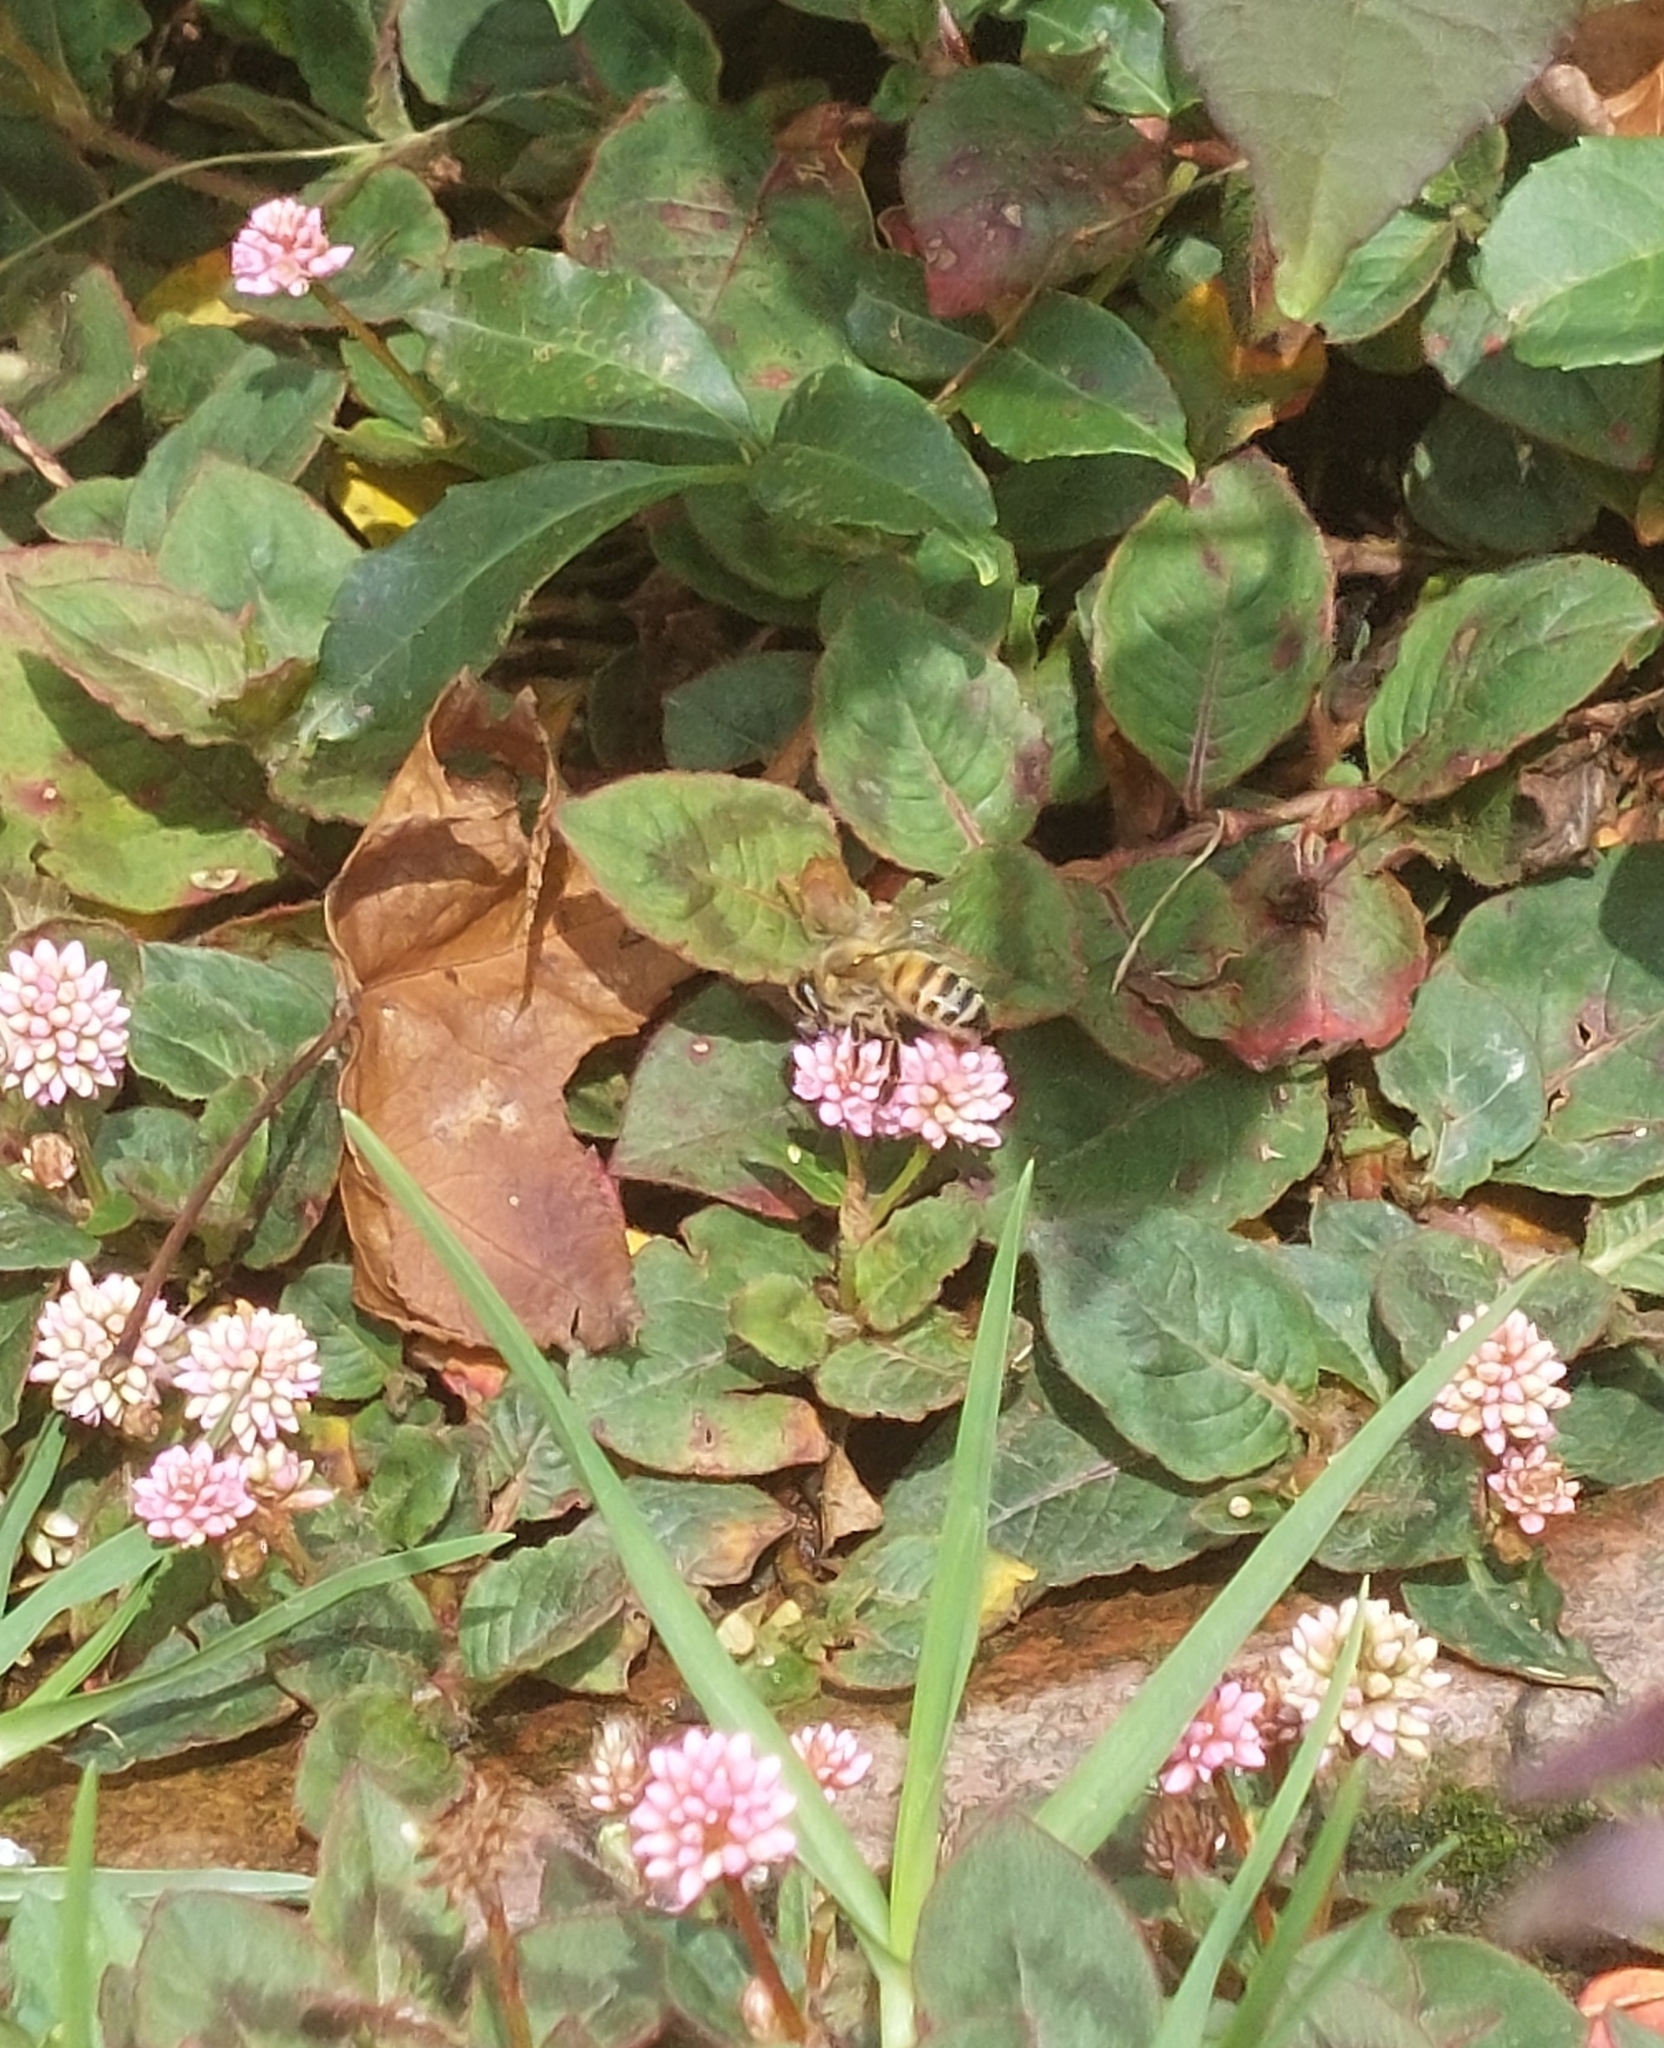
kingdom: Animalia
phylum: Arthropoda
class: Insecta
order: Hymenoptera
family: Apidae
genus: Apis
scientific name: Apis mellifera
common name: Honey bee
